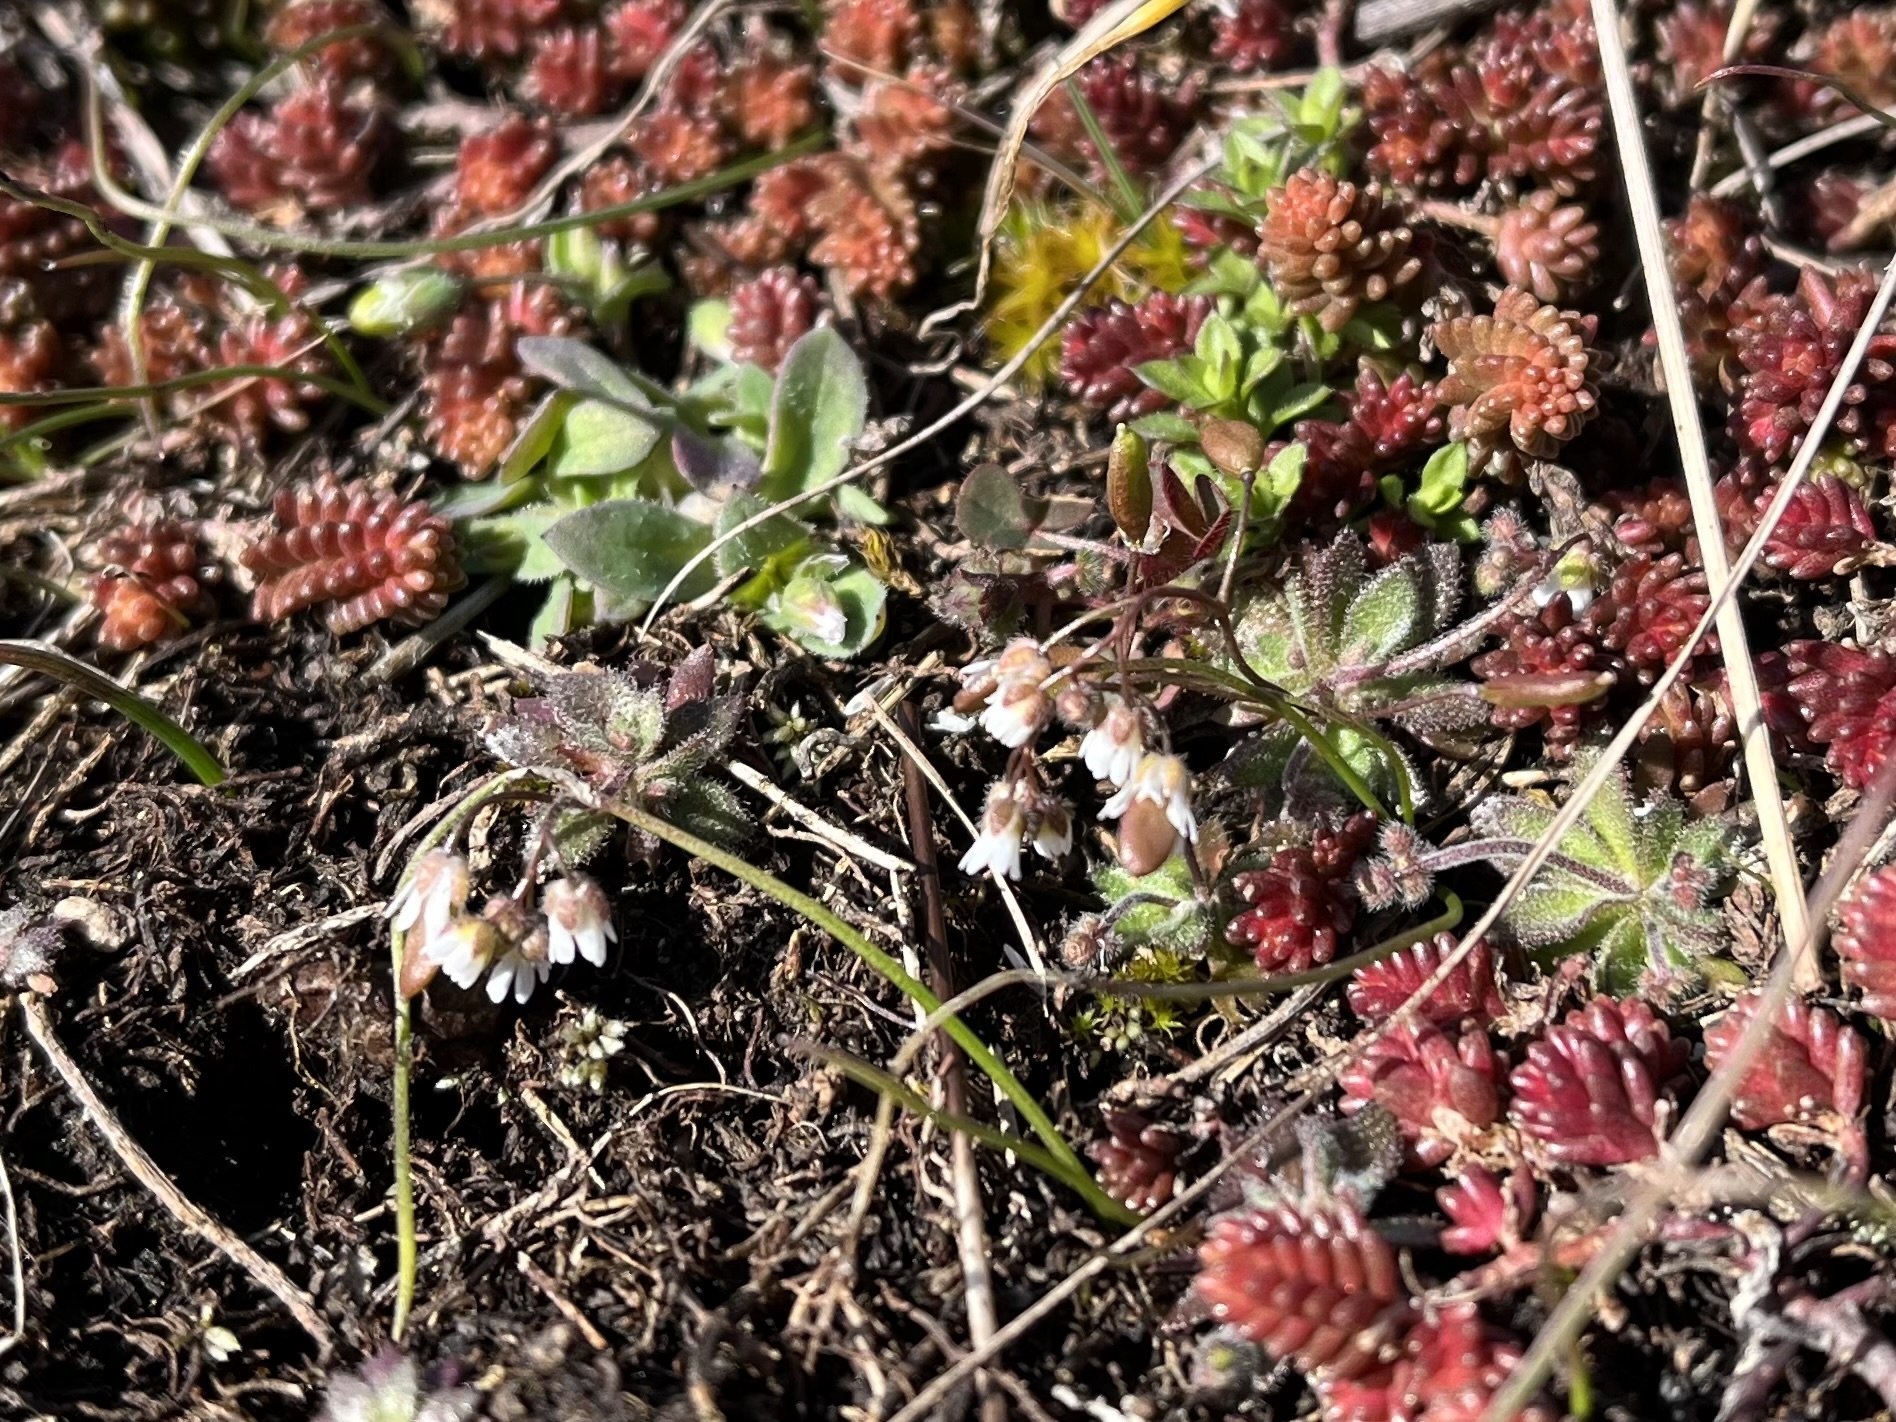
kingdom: Plantae
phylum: Tracheophyta
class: Magnoliopsida
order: Brassicales
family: Brassicaceae
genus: Draba
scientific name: Draba verna
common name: Spring draba
